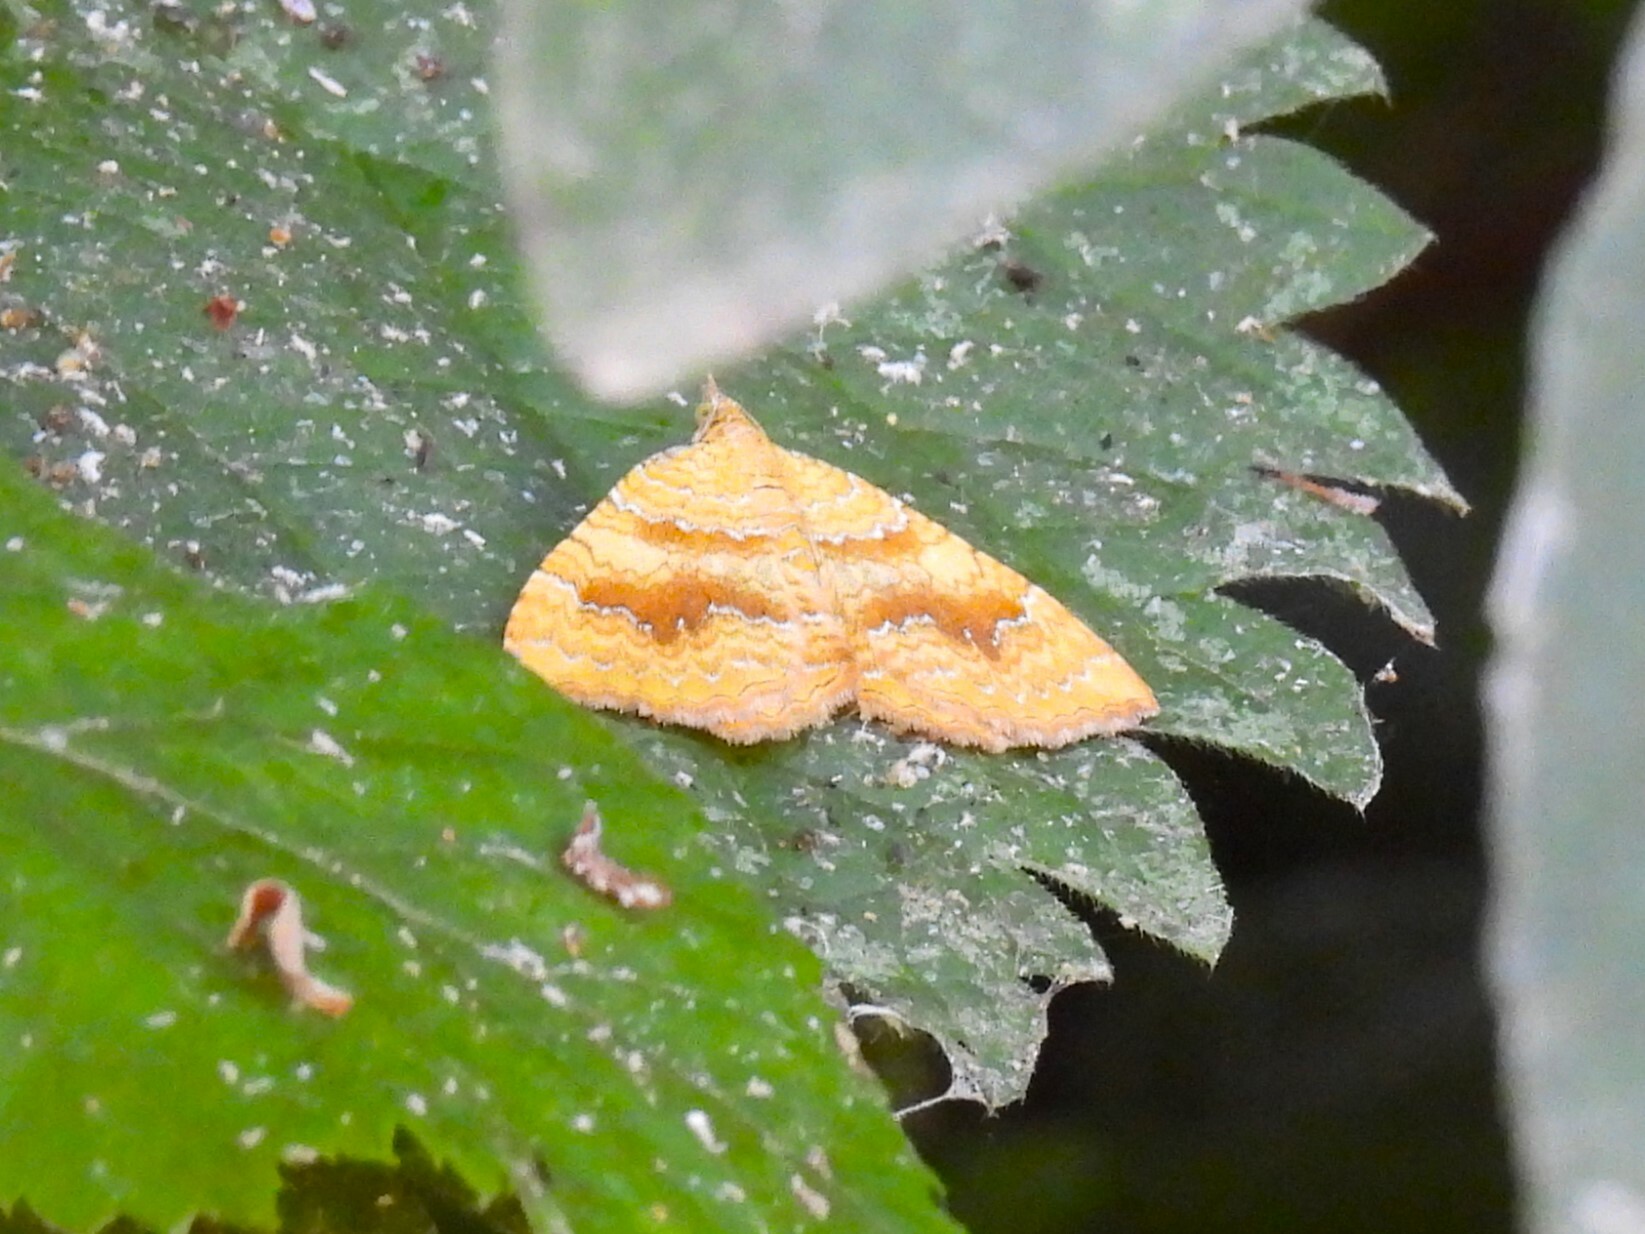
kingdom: Animalia
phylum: Arthropoda
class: Insecta
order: Lepidoptera
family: Geometridae
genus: Camptogramma
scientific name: Camptogramma bilineata
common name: Yellow shell
